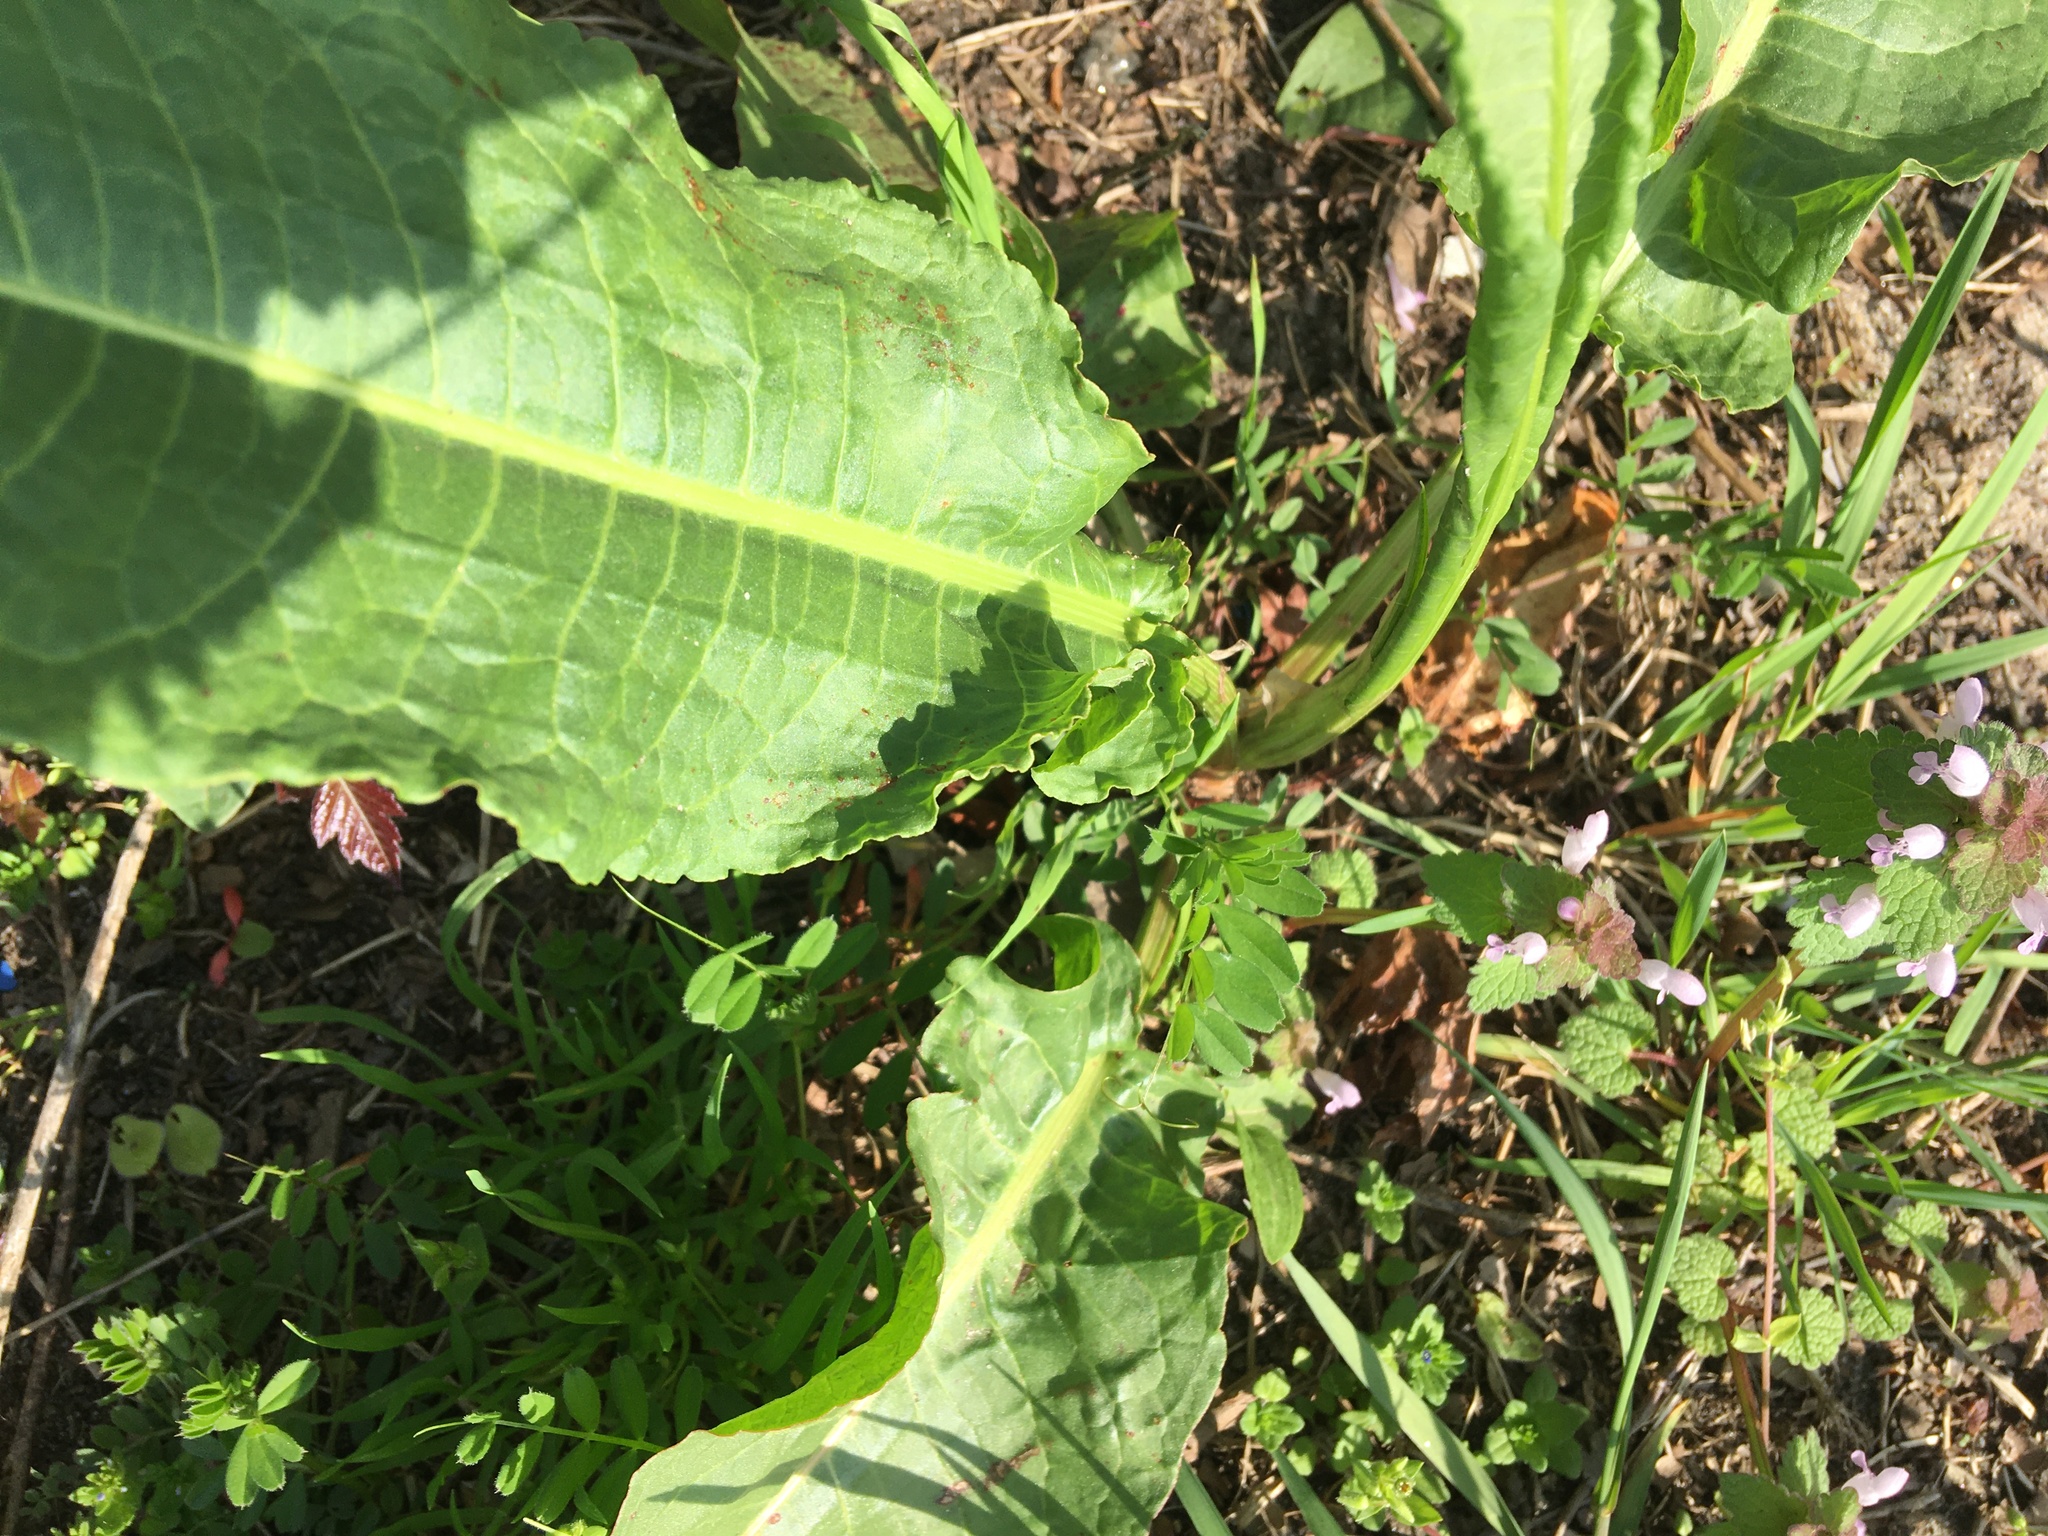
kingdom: Plantae
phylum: Tracheophyta
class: Magnoliopsida
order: Caryophyllales
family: Polygonaceae
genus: Rumex
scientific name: Rumex obtusifolius
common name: Bitter dock
